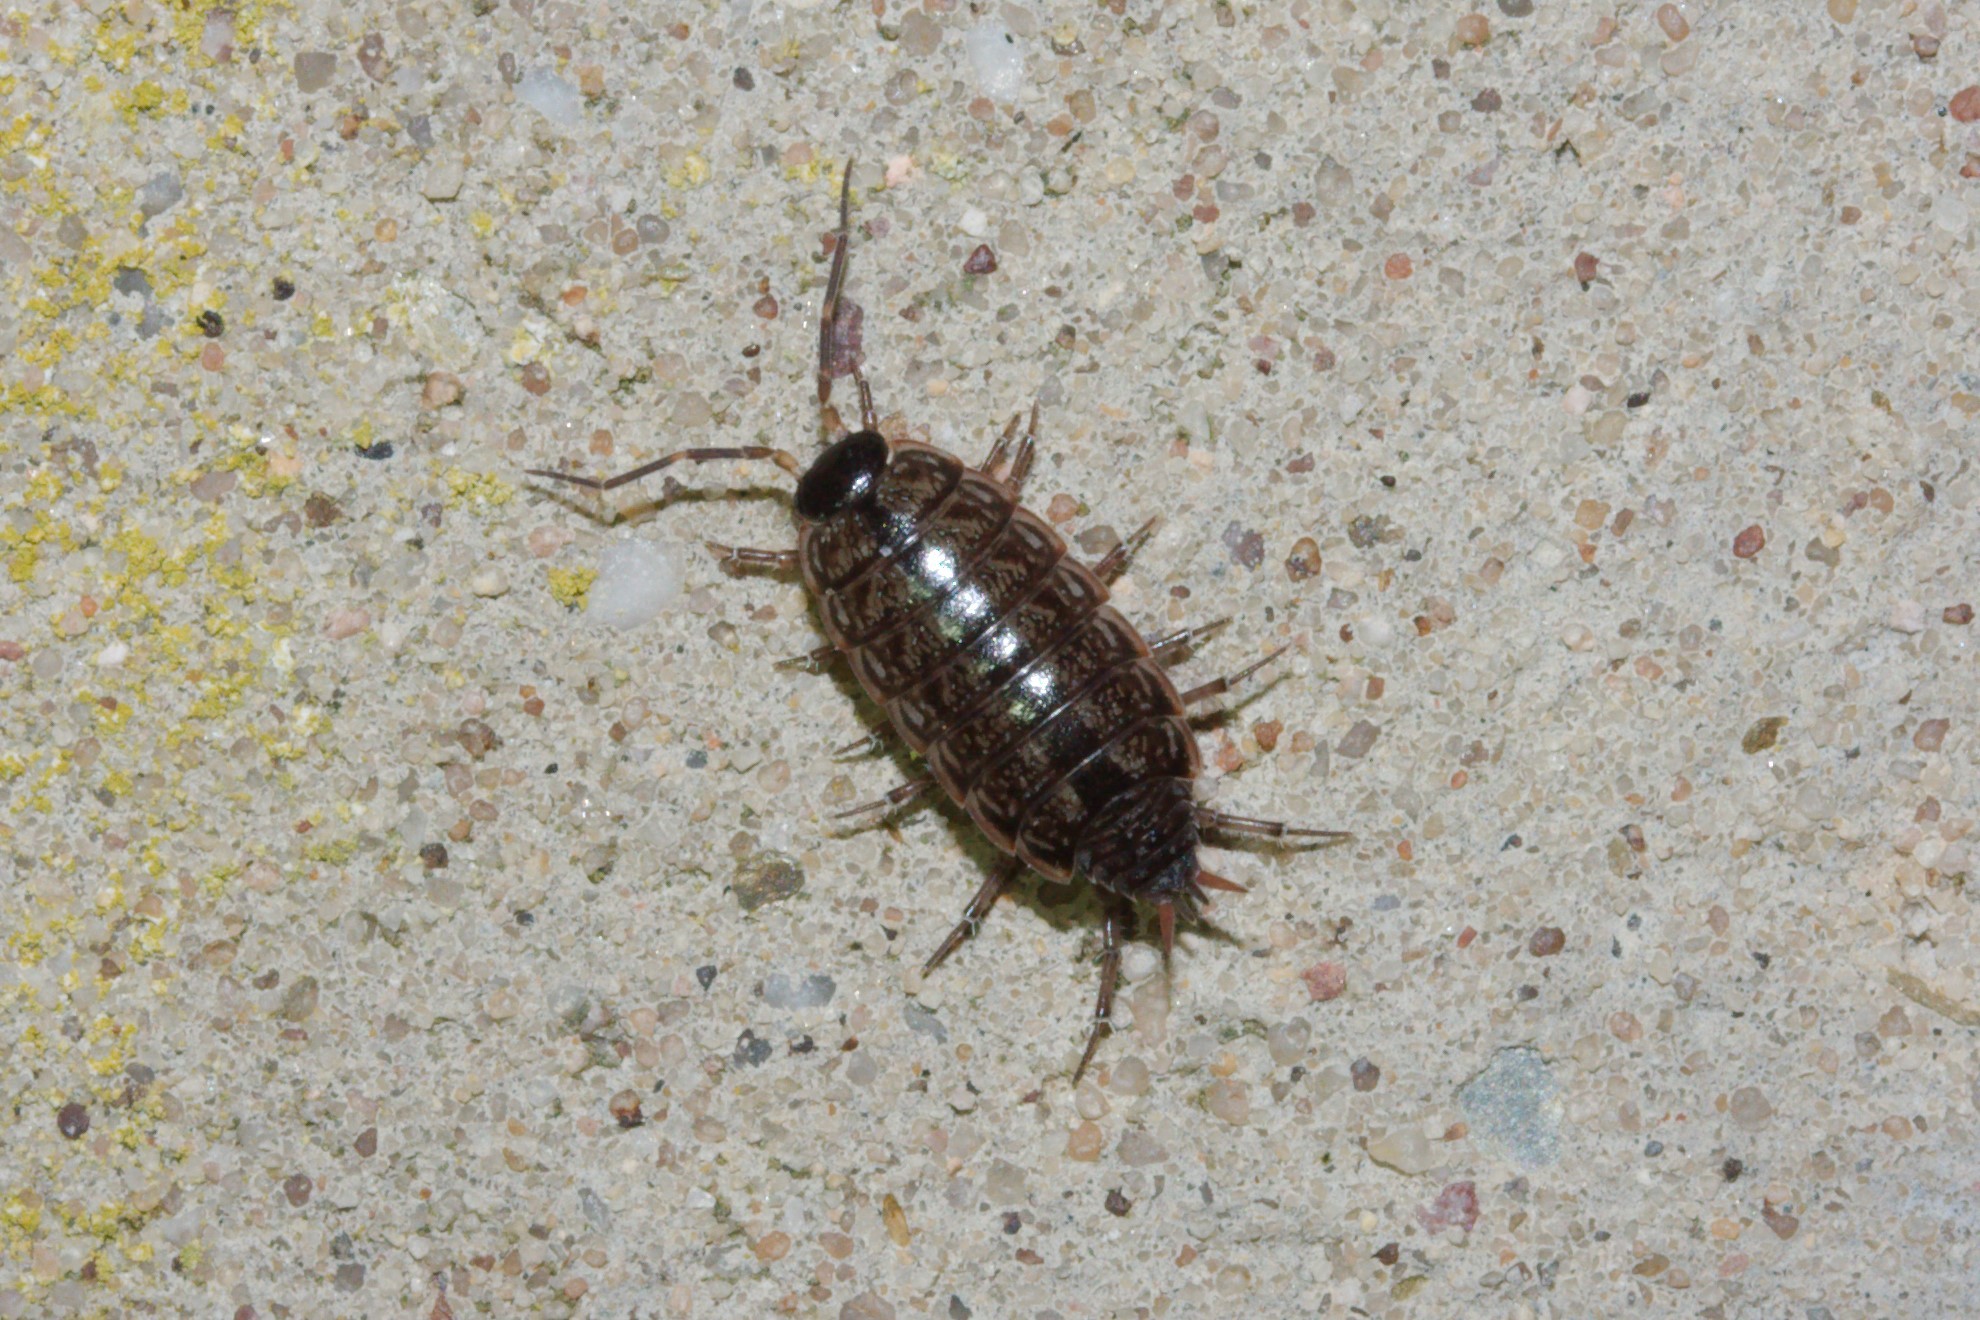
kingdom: Animalia
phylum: Arthropoda
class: Malacostraca
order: Isopoda
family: Philosciidae
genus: Philoscia
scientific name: Philoscia muscorum
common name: Common striped woodlouse
